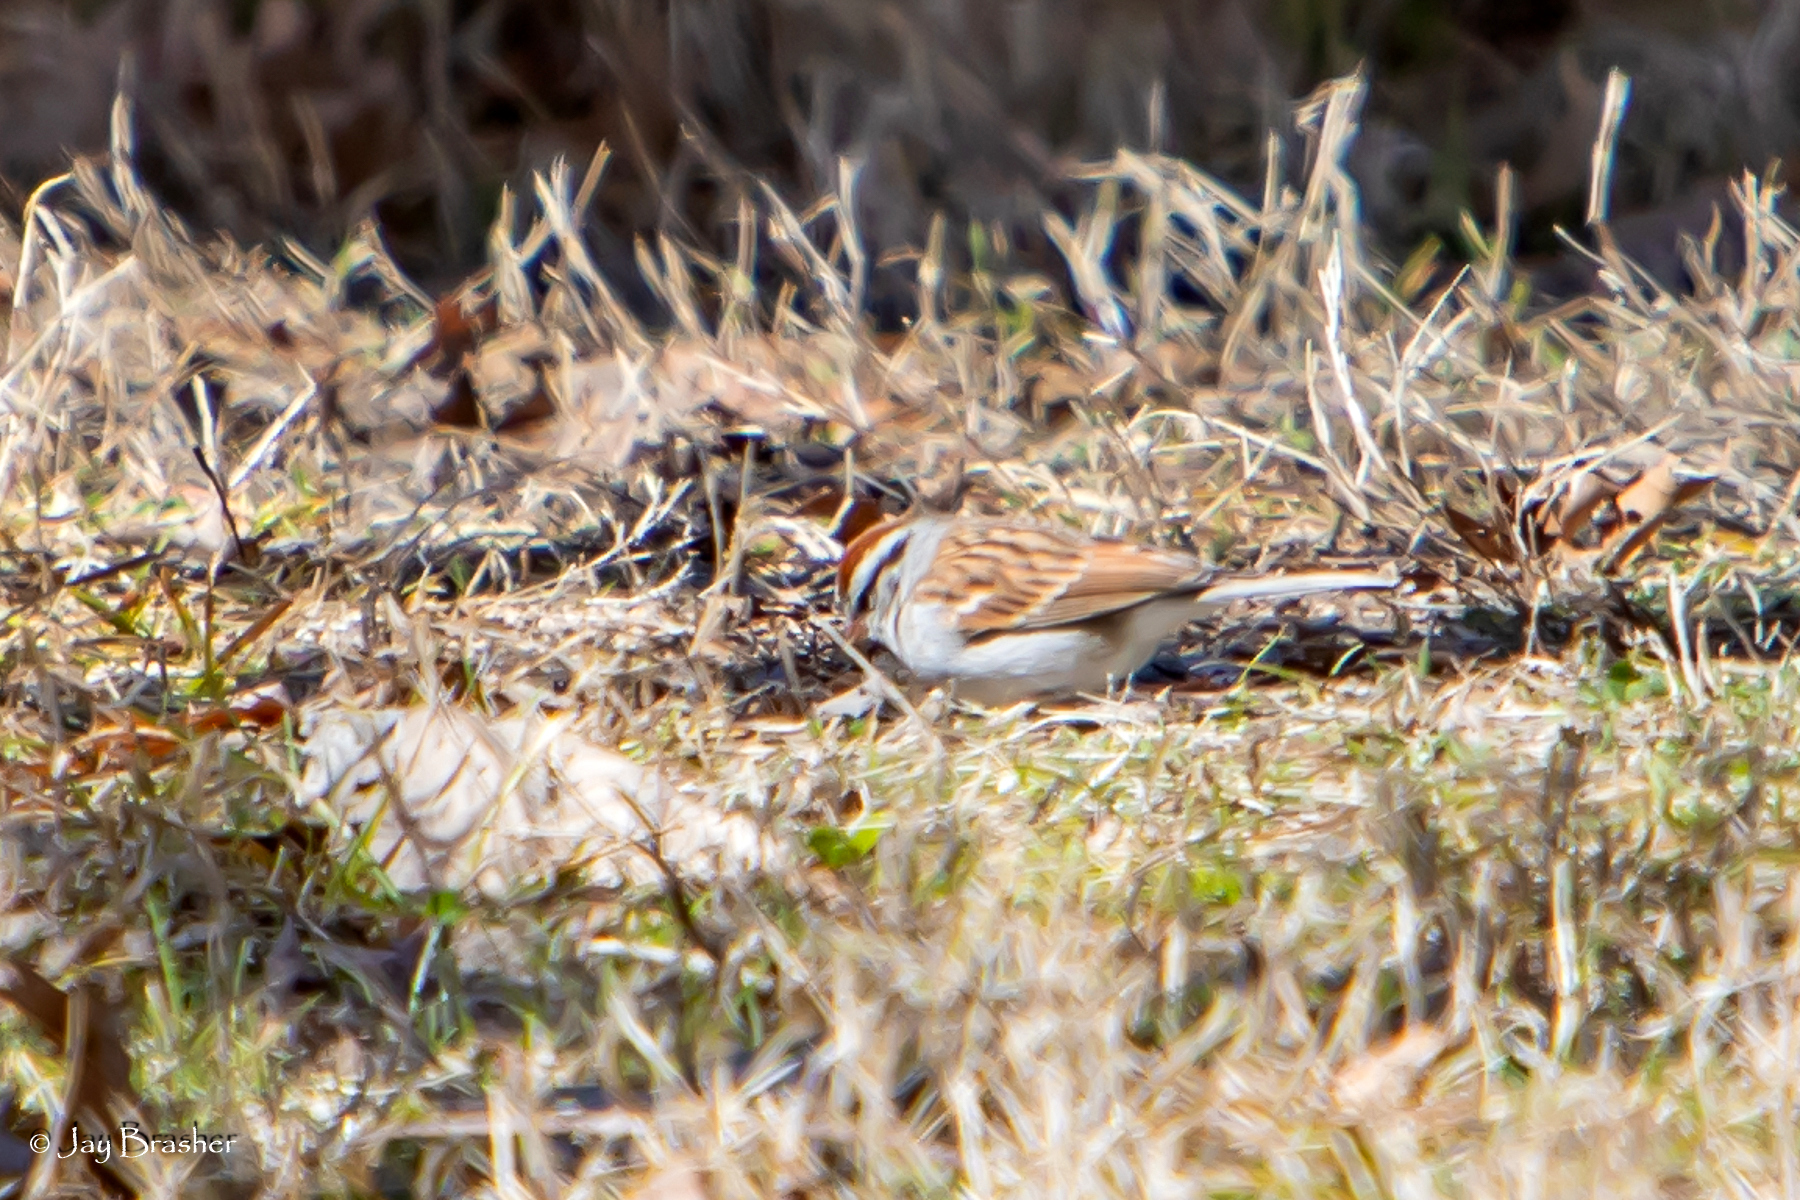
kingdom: Animalia
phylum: Chordata
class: Aves
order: Passeriformes
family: Passerellidae
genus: Spizella
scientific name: Spizella passerina
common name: Chipping sparrow
